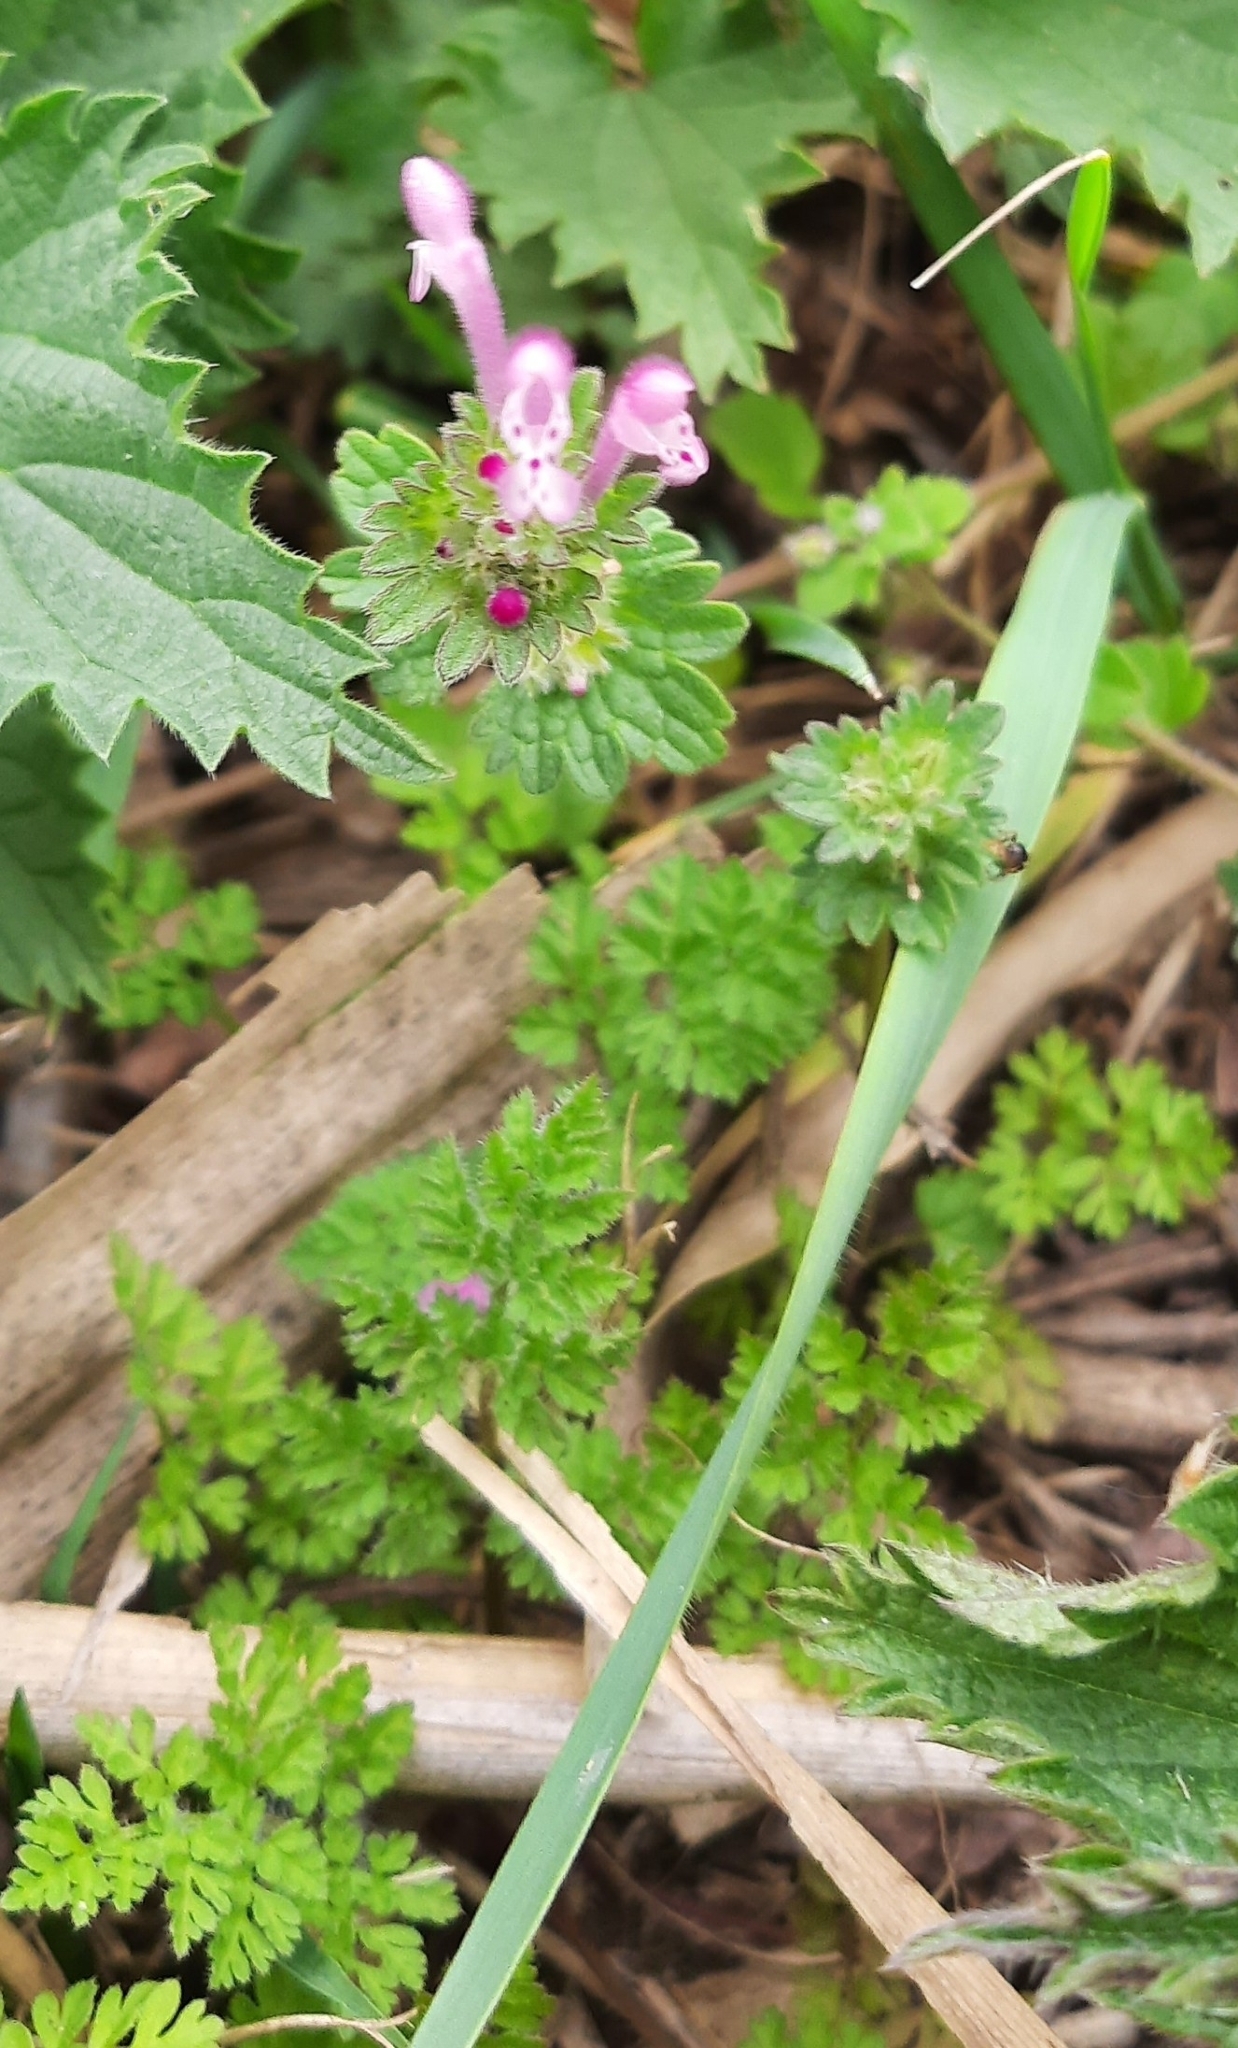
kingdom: Plantae
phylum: Tracheophyta
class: Magnoliopsida
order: Lamiales
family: Lamiaceae
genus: Lamium
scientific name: Lamium amplexicaule
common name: Henbit dead-nettle
